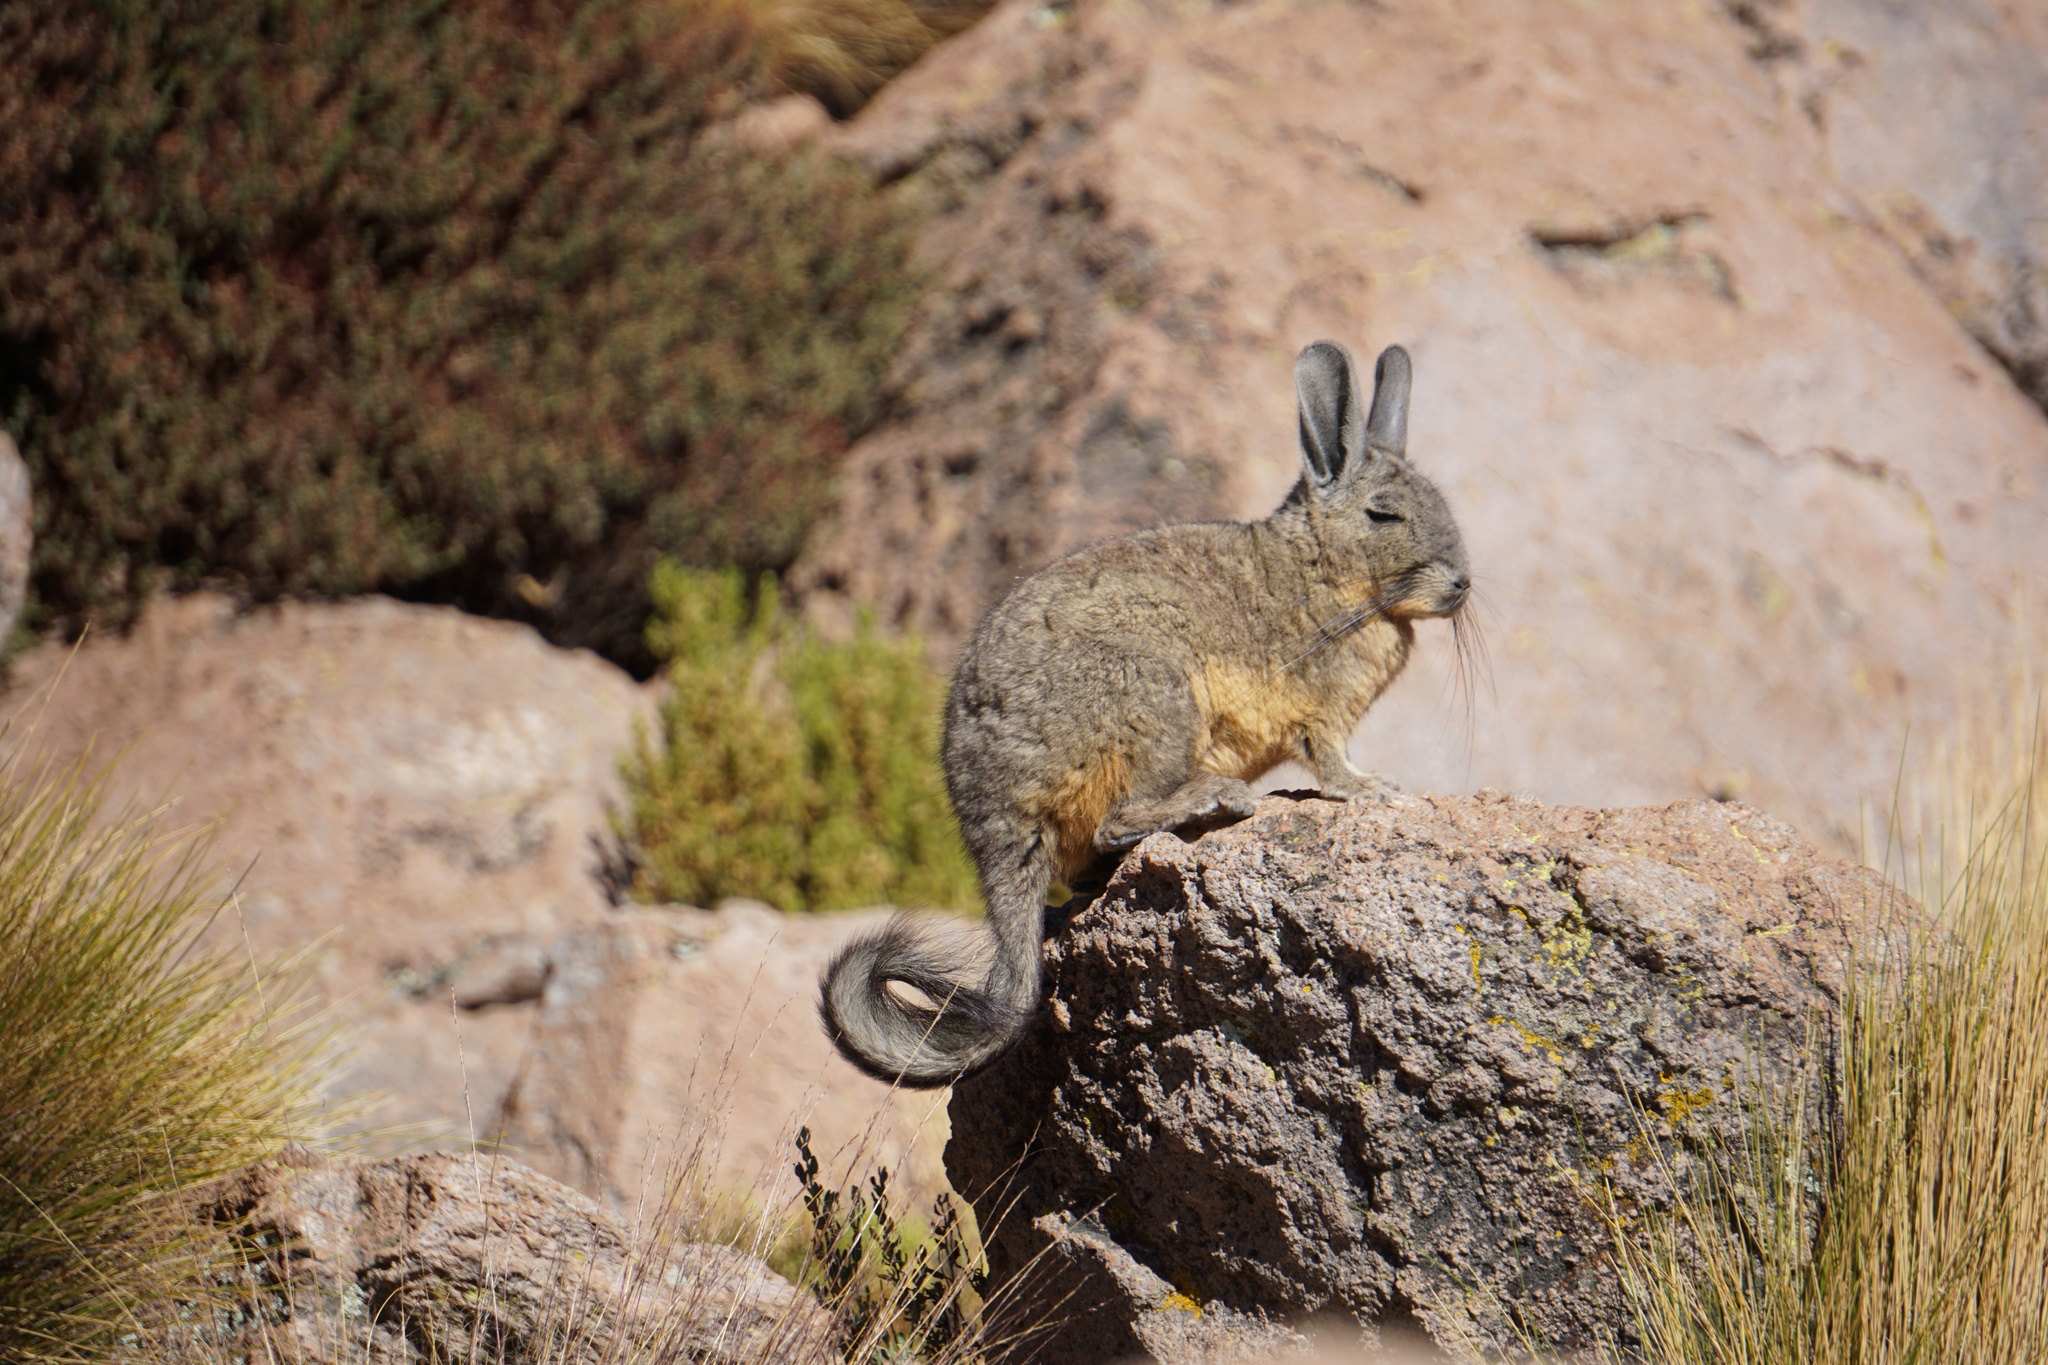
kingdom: Animalia
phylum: Chordata
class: Mammalia
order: Rodentia
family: Chinchillidae
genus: Lagidium
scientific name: Lagidium viscacia
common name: Southern viscacha
